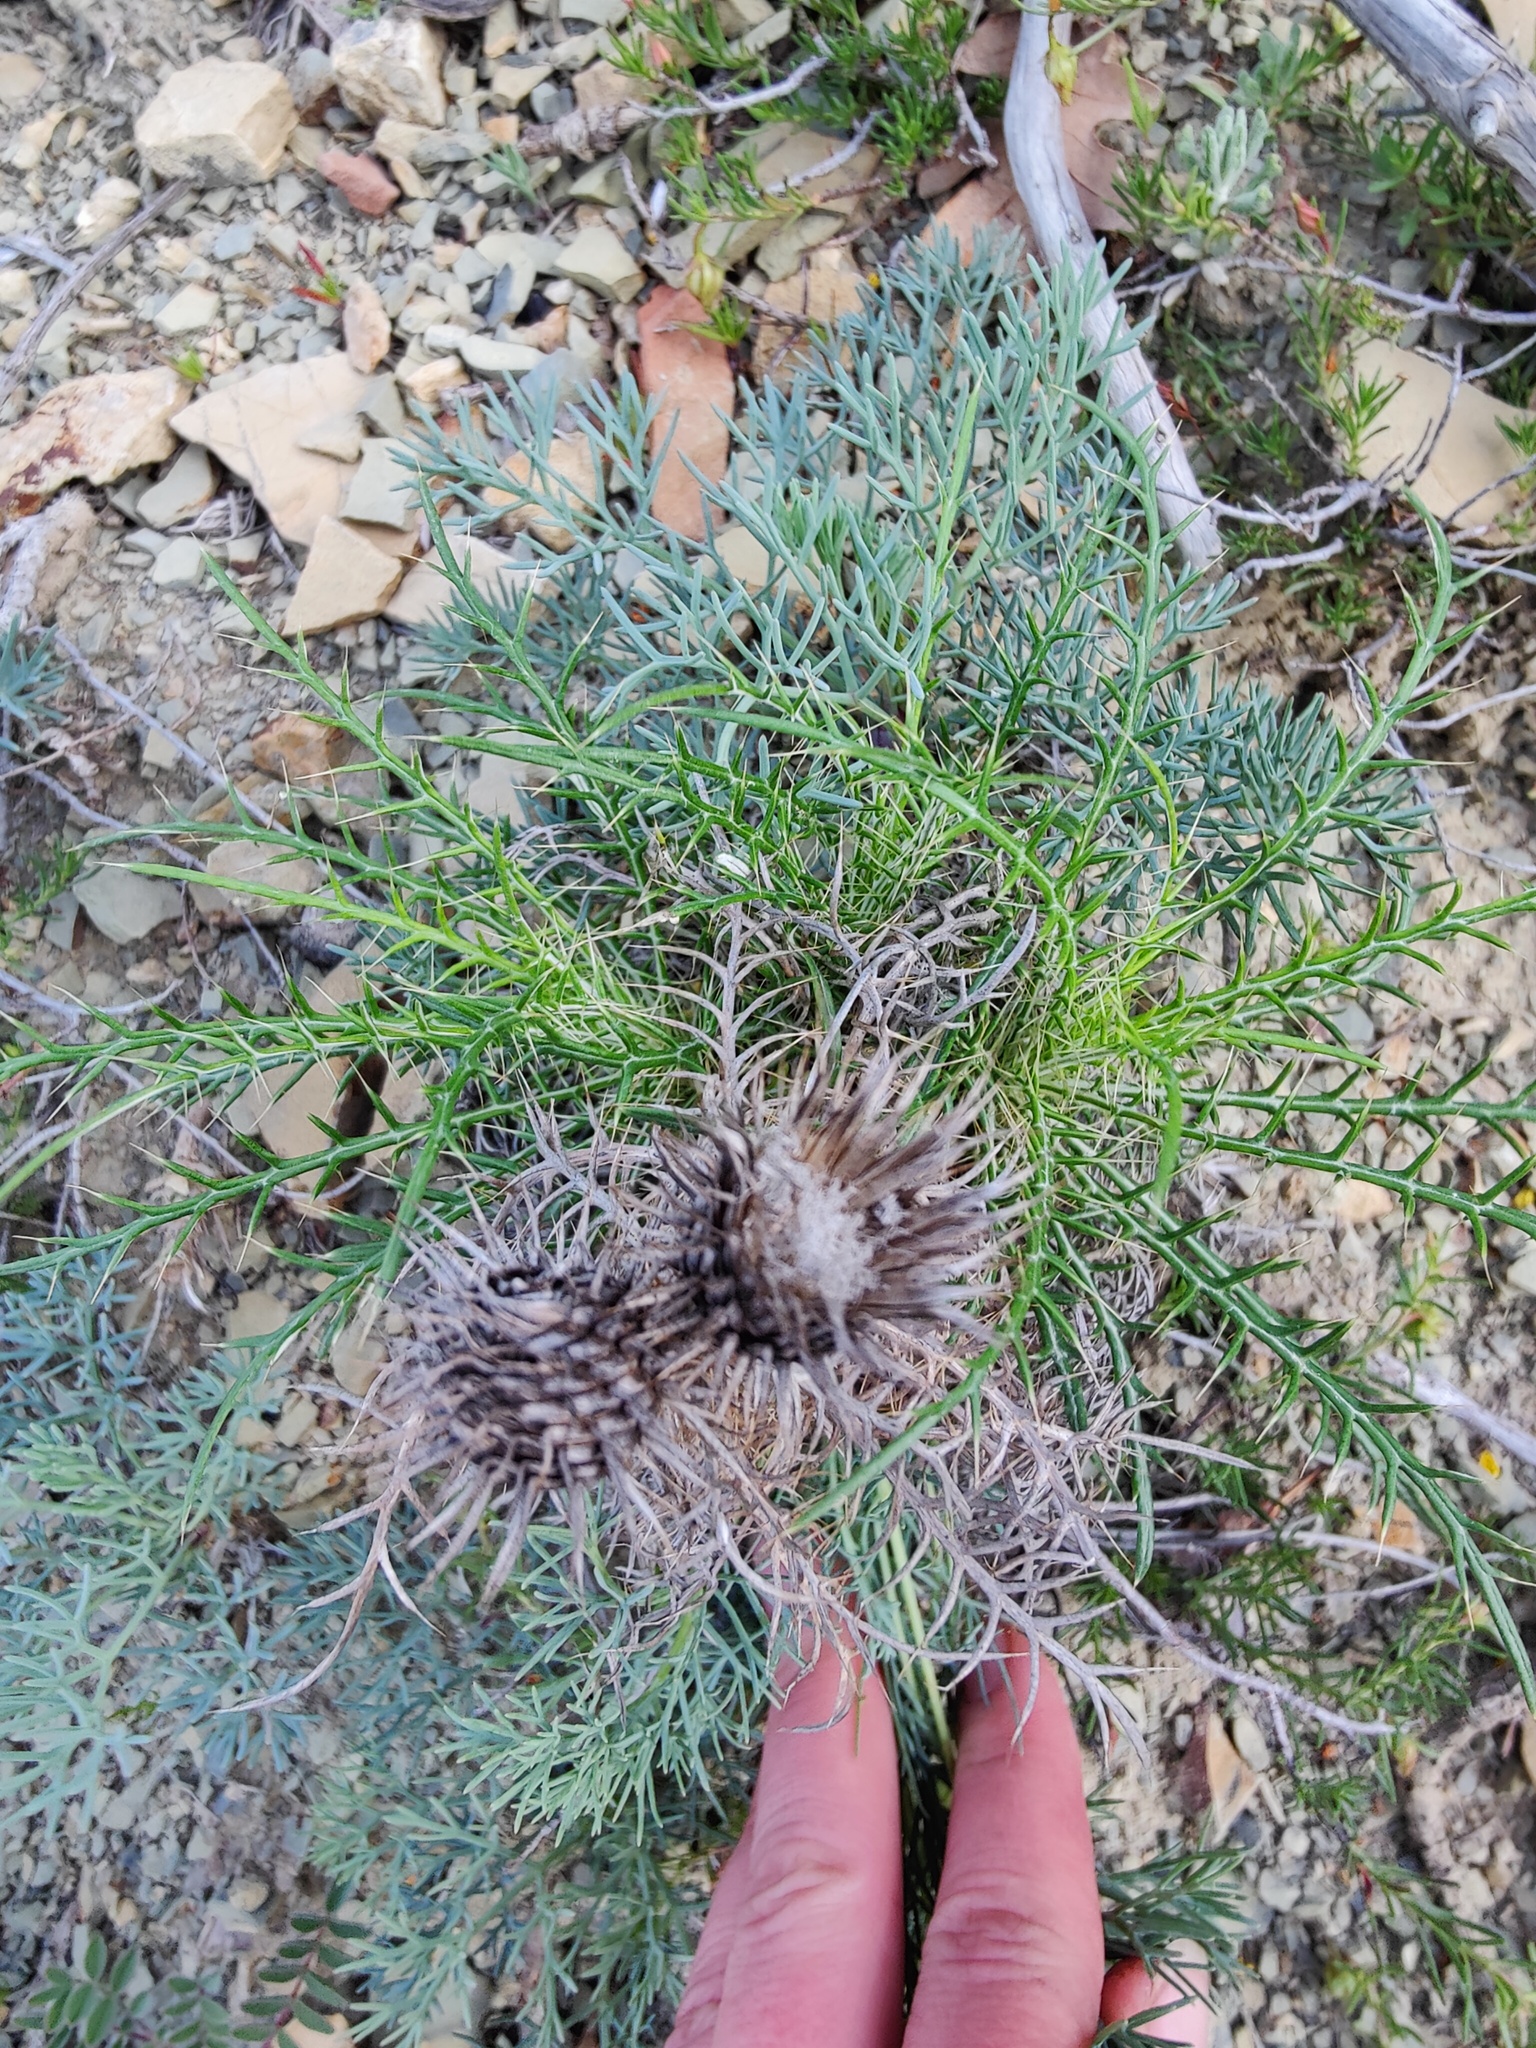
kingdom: Plantae
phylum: Tracheophyta
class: Magnoliopsida
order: Asterales
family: Asteraceae
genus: Ptilostemon
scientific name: Ptilostemon echinocephalus
